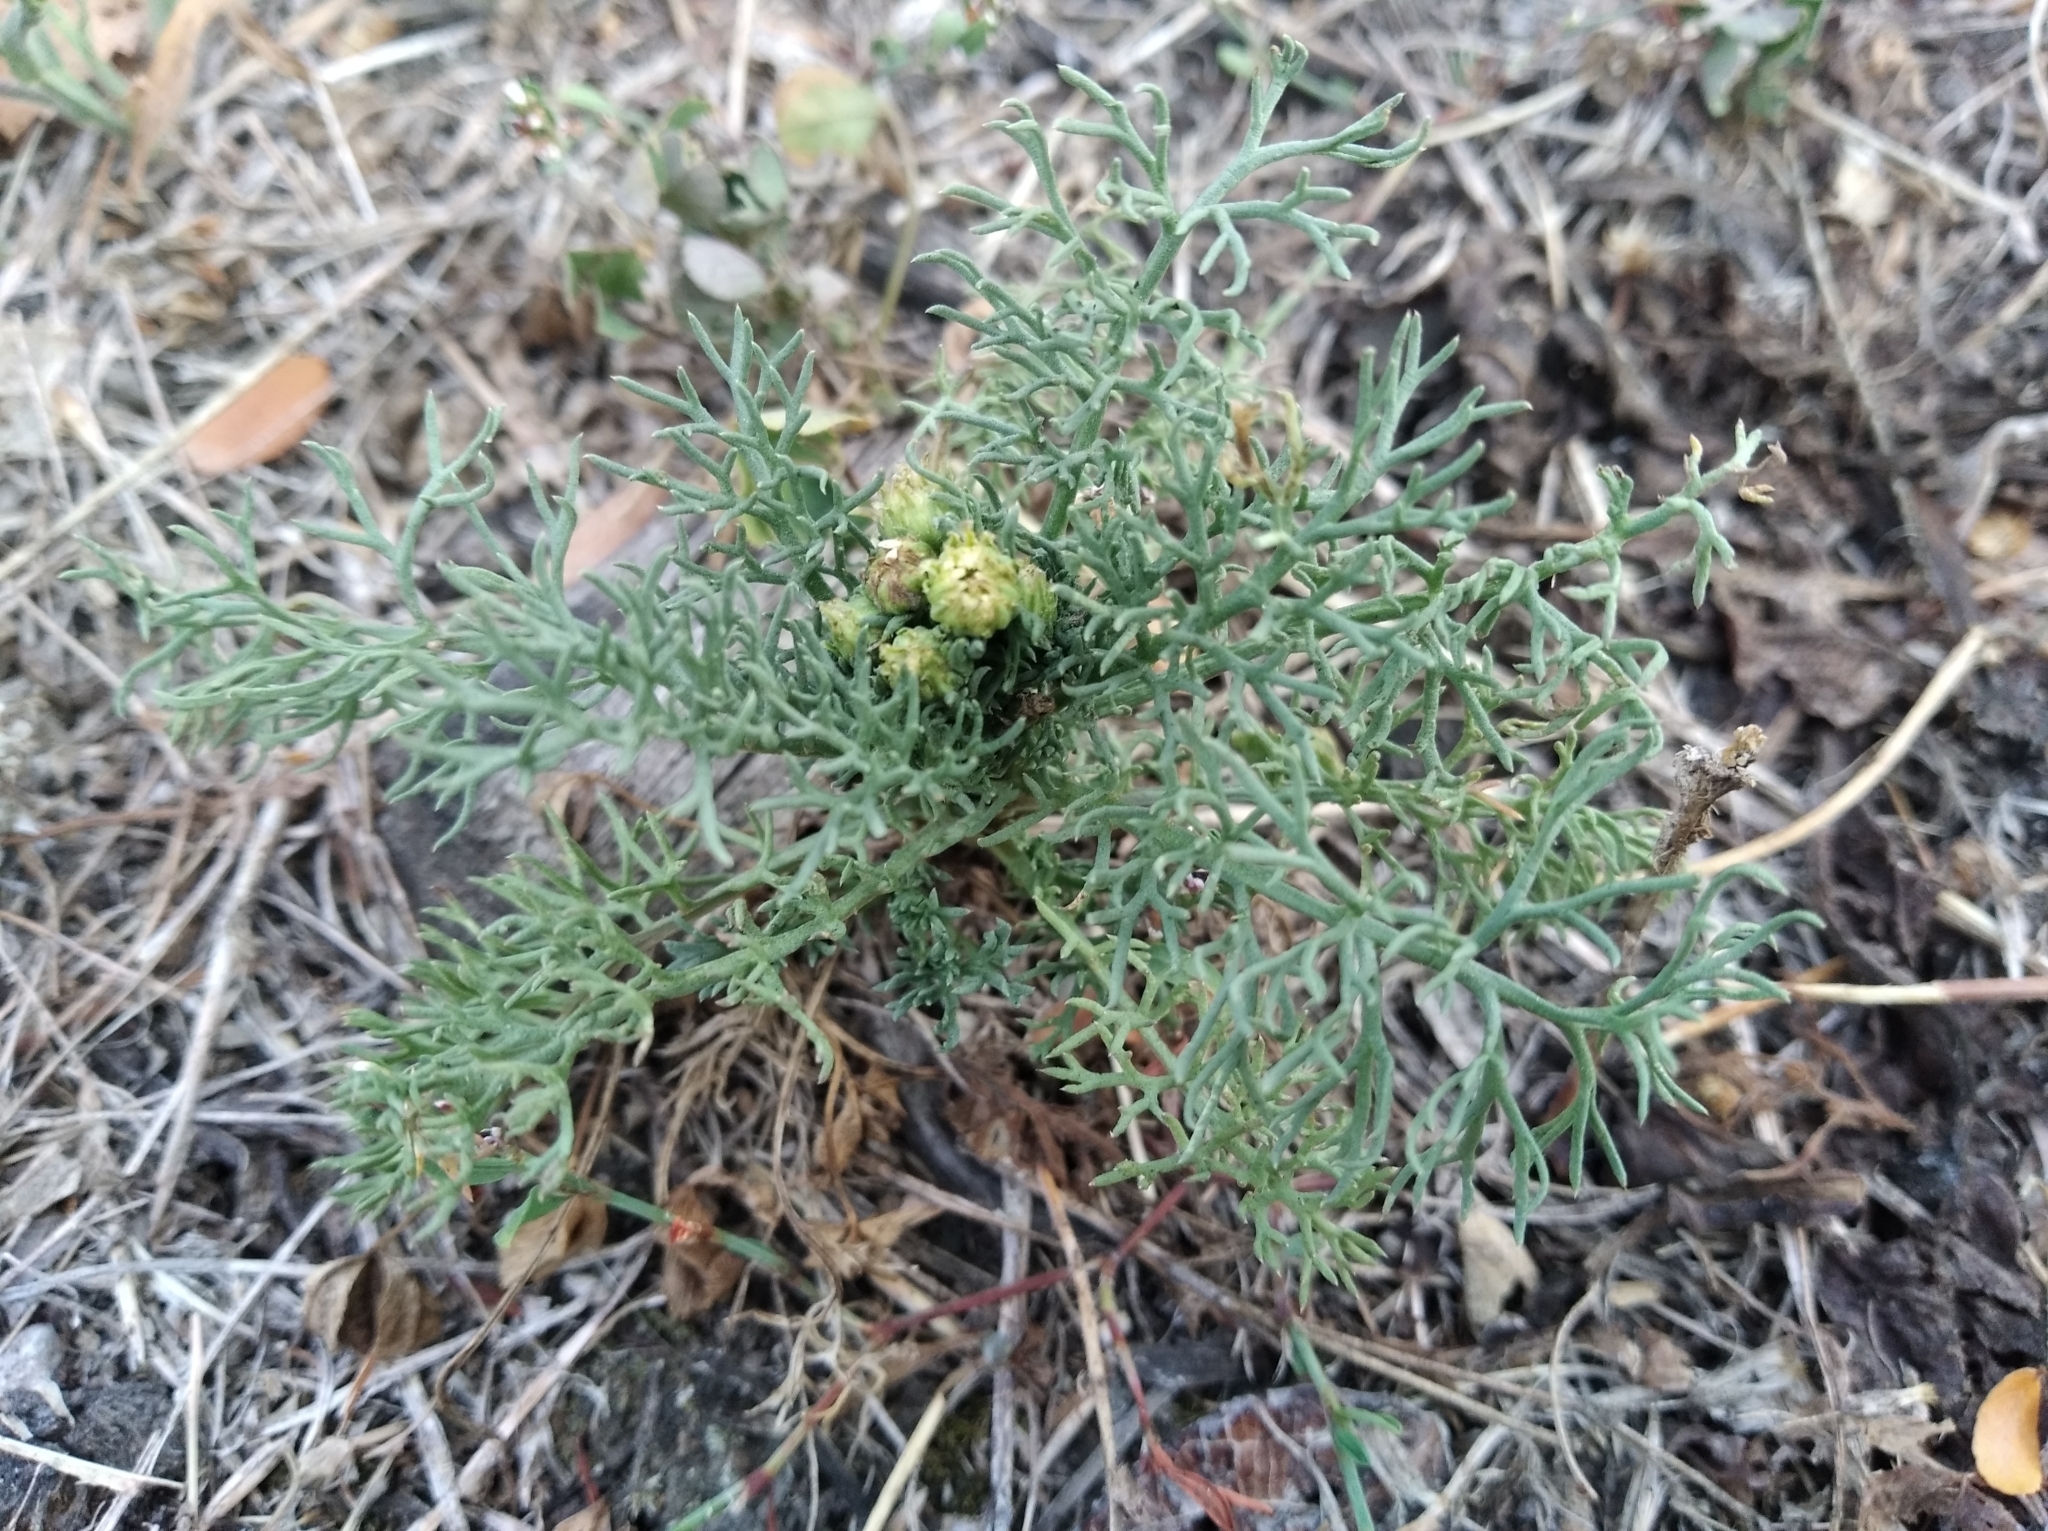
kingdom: Plantae
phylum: Tracheophyta
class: Magnoliopsida
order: Asterales
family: Asteraceae
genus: Tripleurospermum
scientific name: Tripleurospermum inodorum
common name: Scentless mayweed
